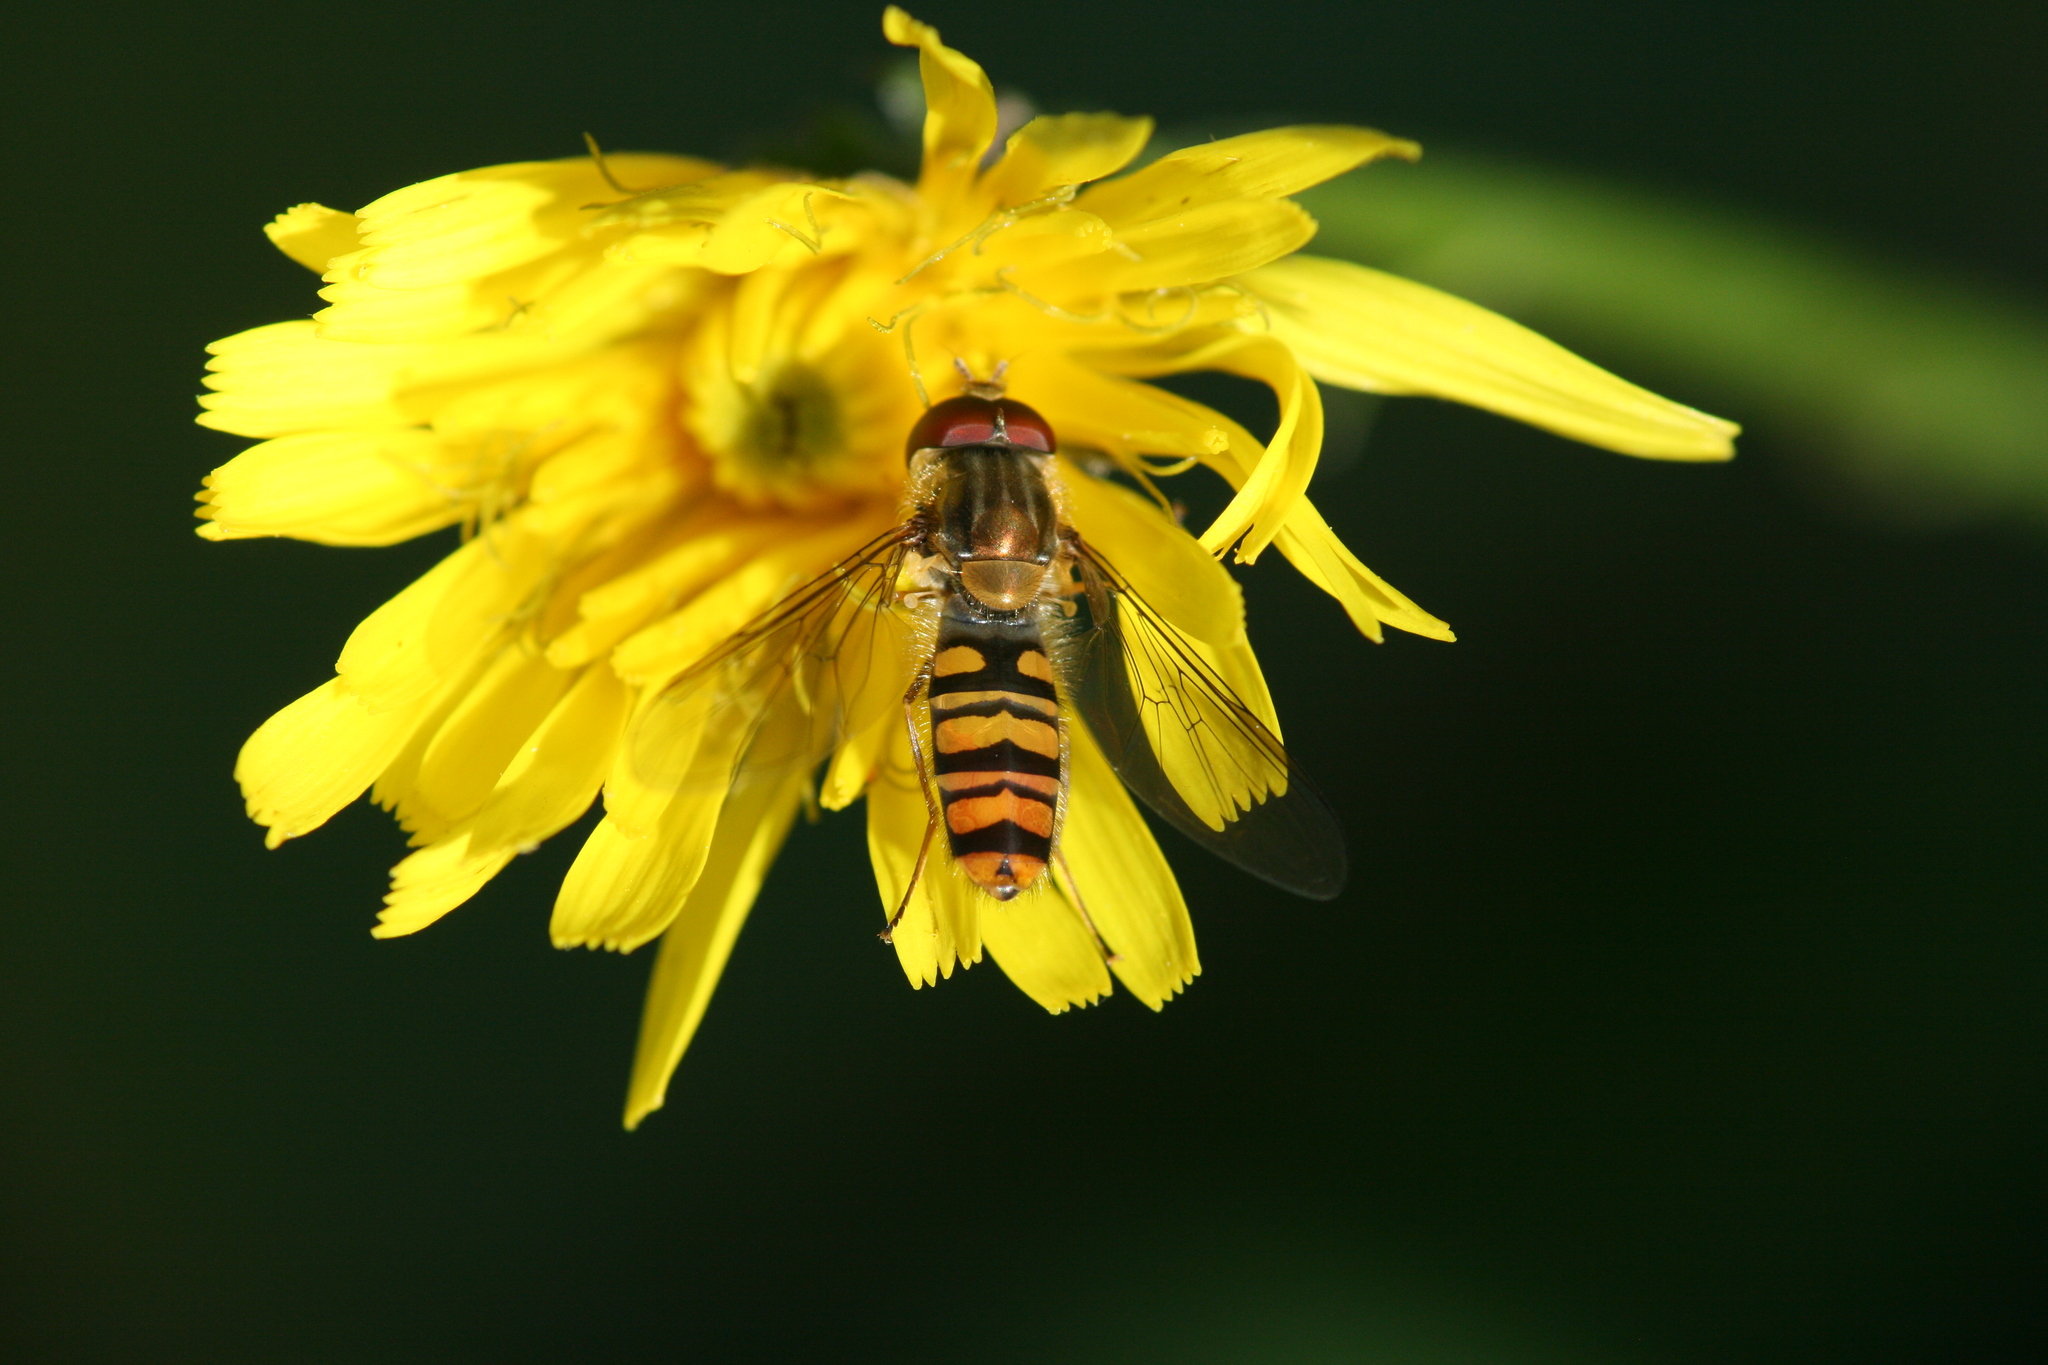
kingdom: Animalia
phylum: Arthropoda
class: Insecta
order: Diptera
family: Syrphidae
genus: Episyrphus
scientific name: Episyrphus balteatus
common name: Marmalade hoverfly
